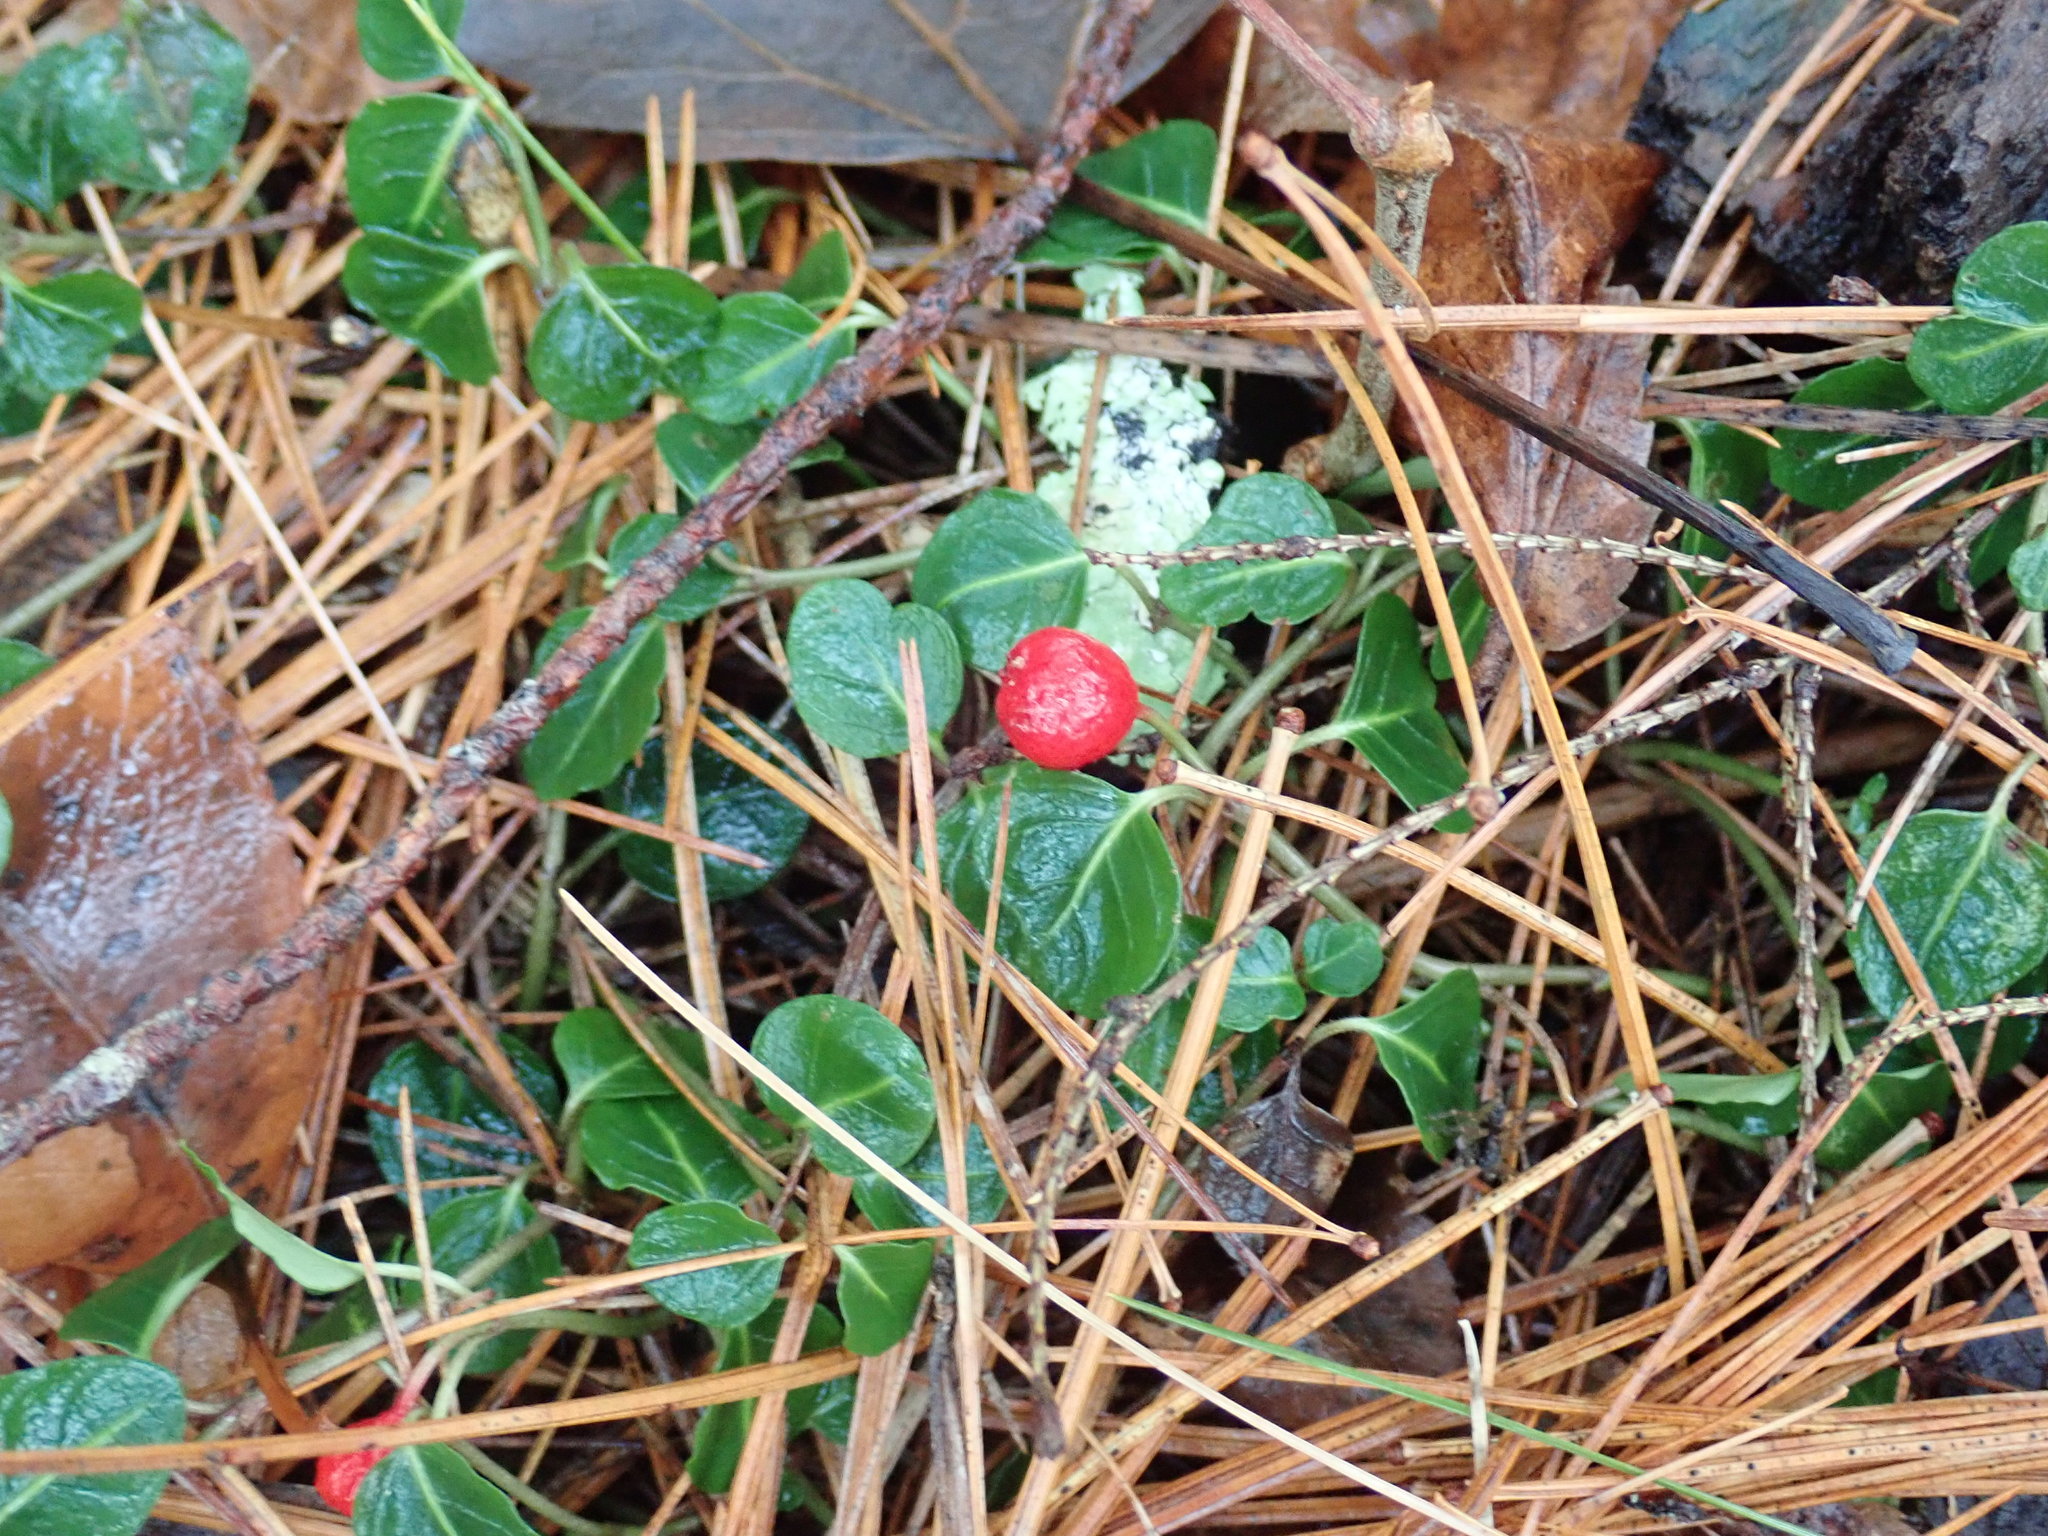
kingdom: Plantae
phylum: Tracheophyta
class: Magnoliopsida
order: Gentianales
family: Rubiaceae
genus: Mitchella
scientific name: Mitchella repens
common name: Partridge-berry
